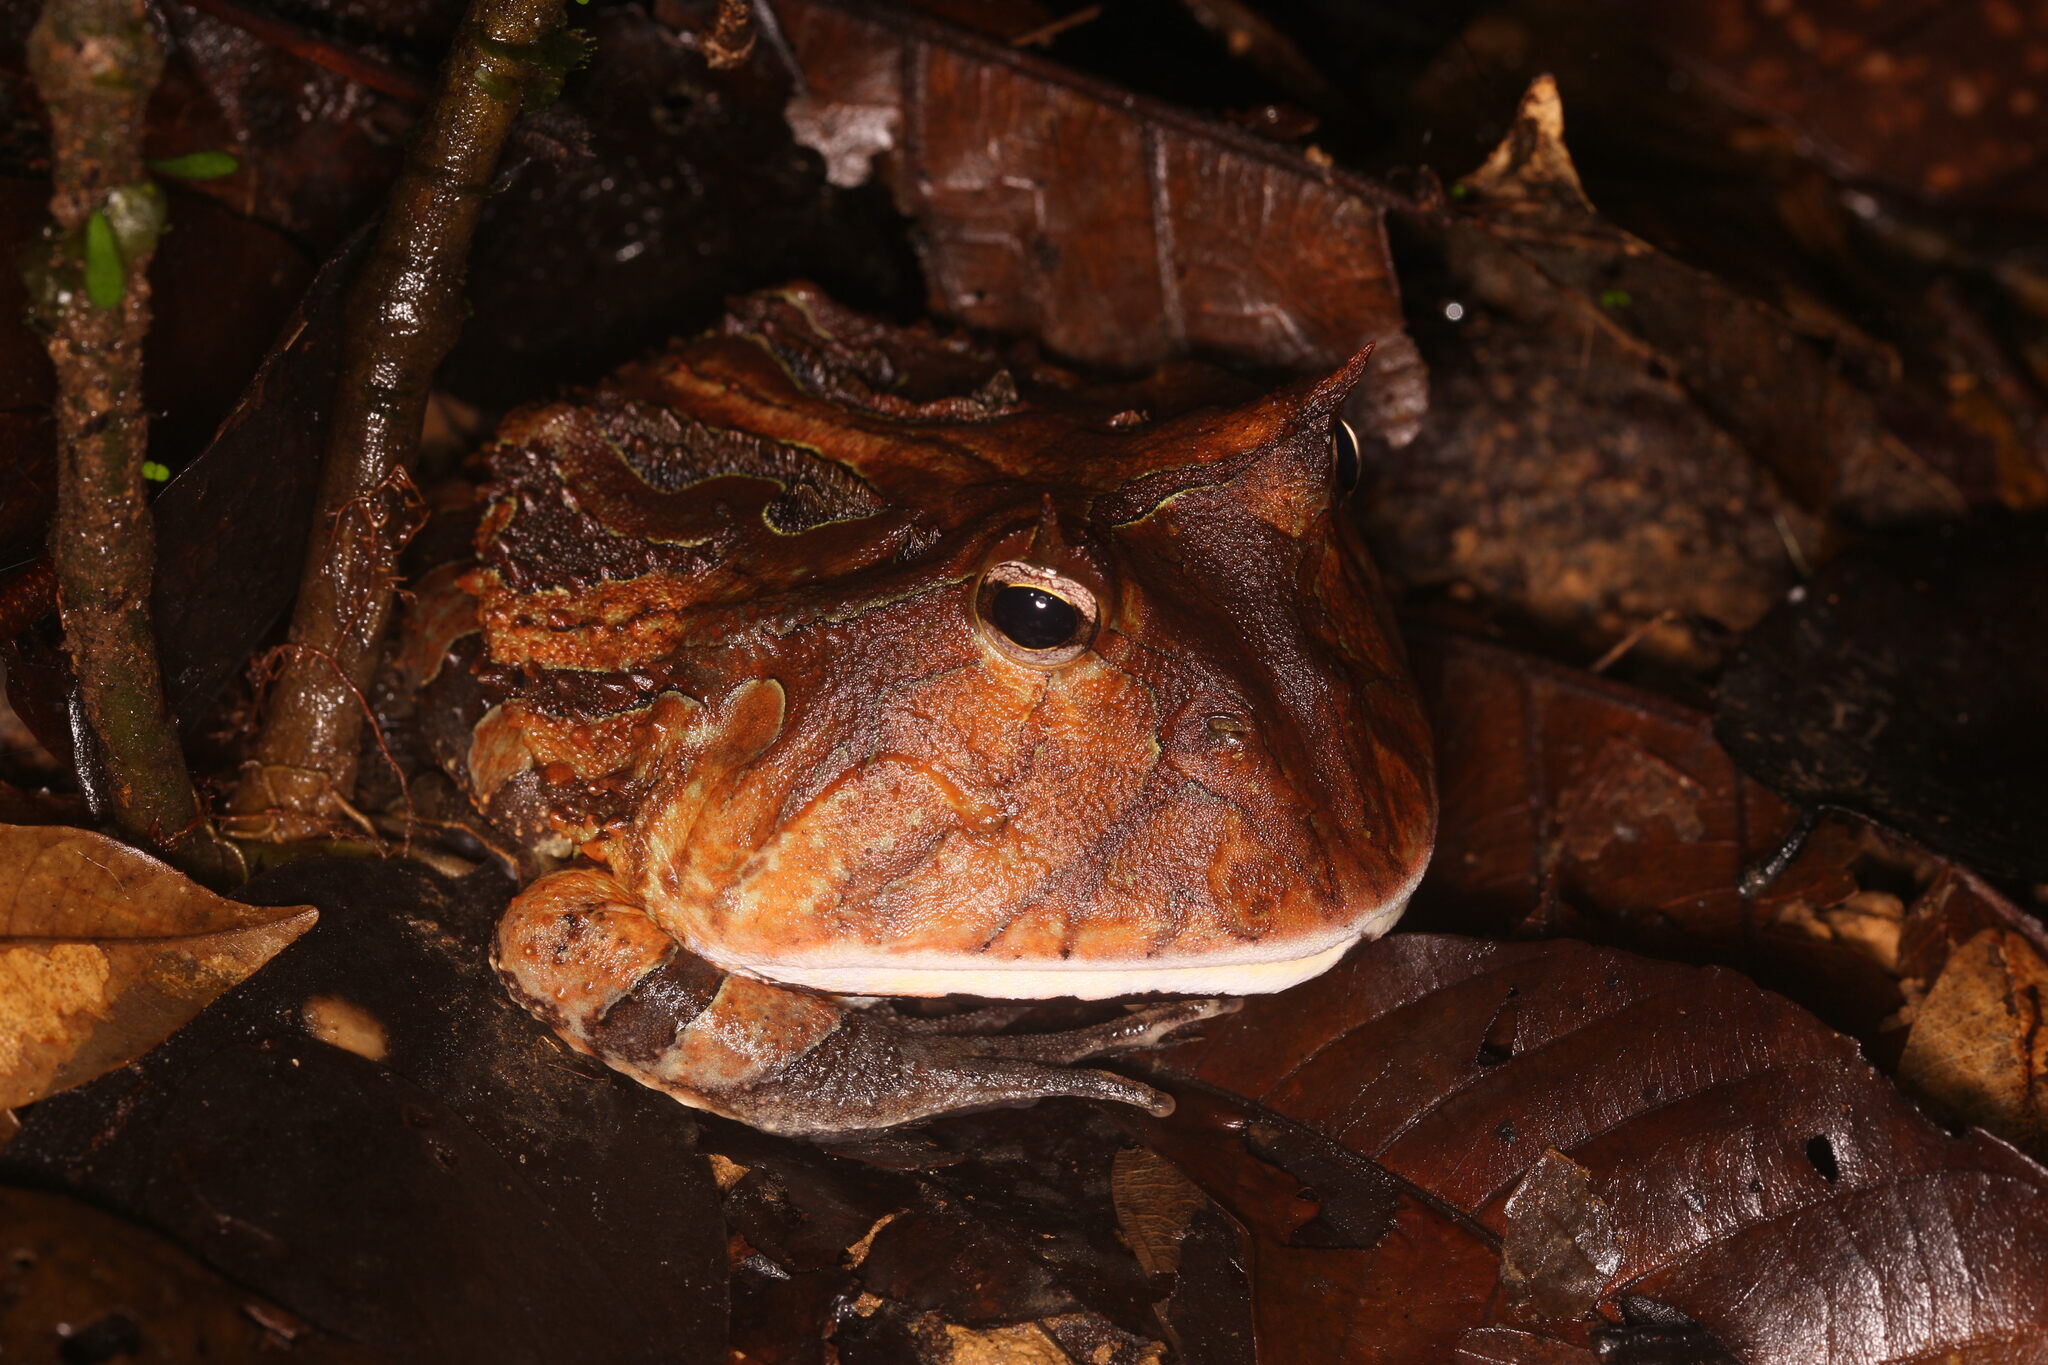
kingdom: Animalia
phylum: Chordata
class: Amphibia
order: Anura
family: Ceratophryidae
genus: Ceratophrys
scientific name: Ceratophrys cornuta
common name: Amazonian horned frog
